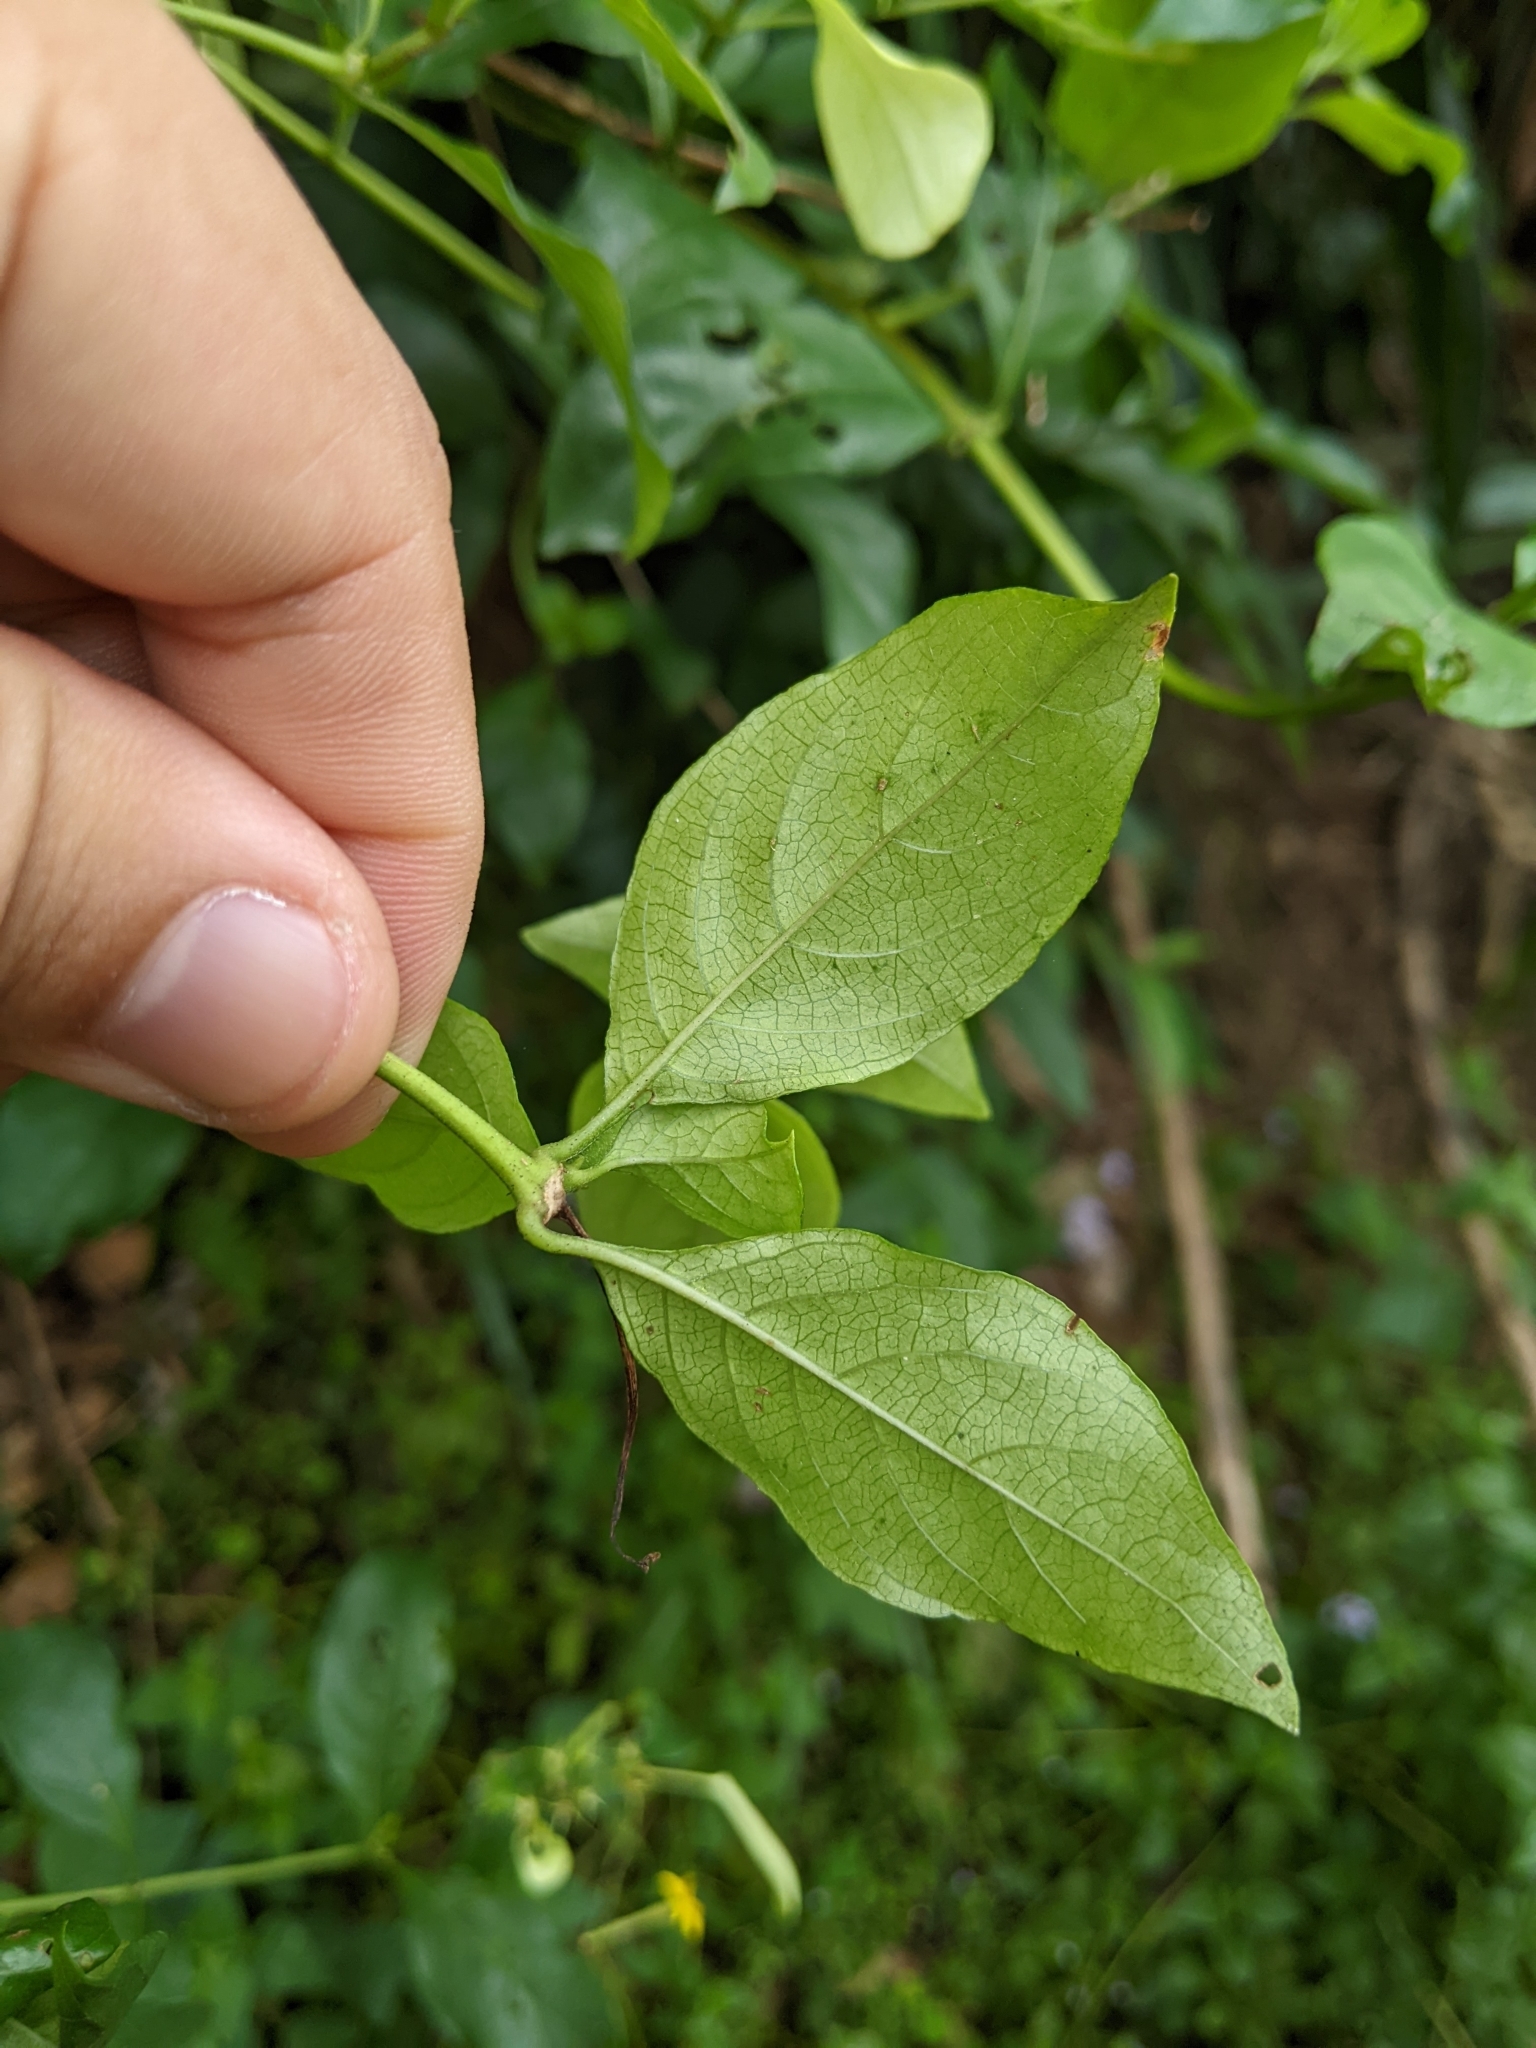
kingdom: Plantae
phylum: Tracheophyta
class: Magnoliopsida
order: Gentianales
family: Rubiaceae
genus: Mussaenda
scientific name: Mussaenda formosana
